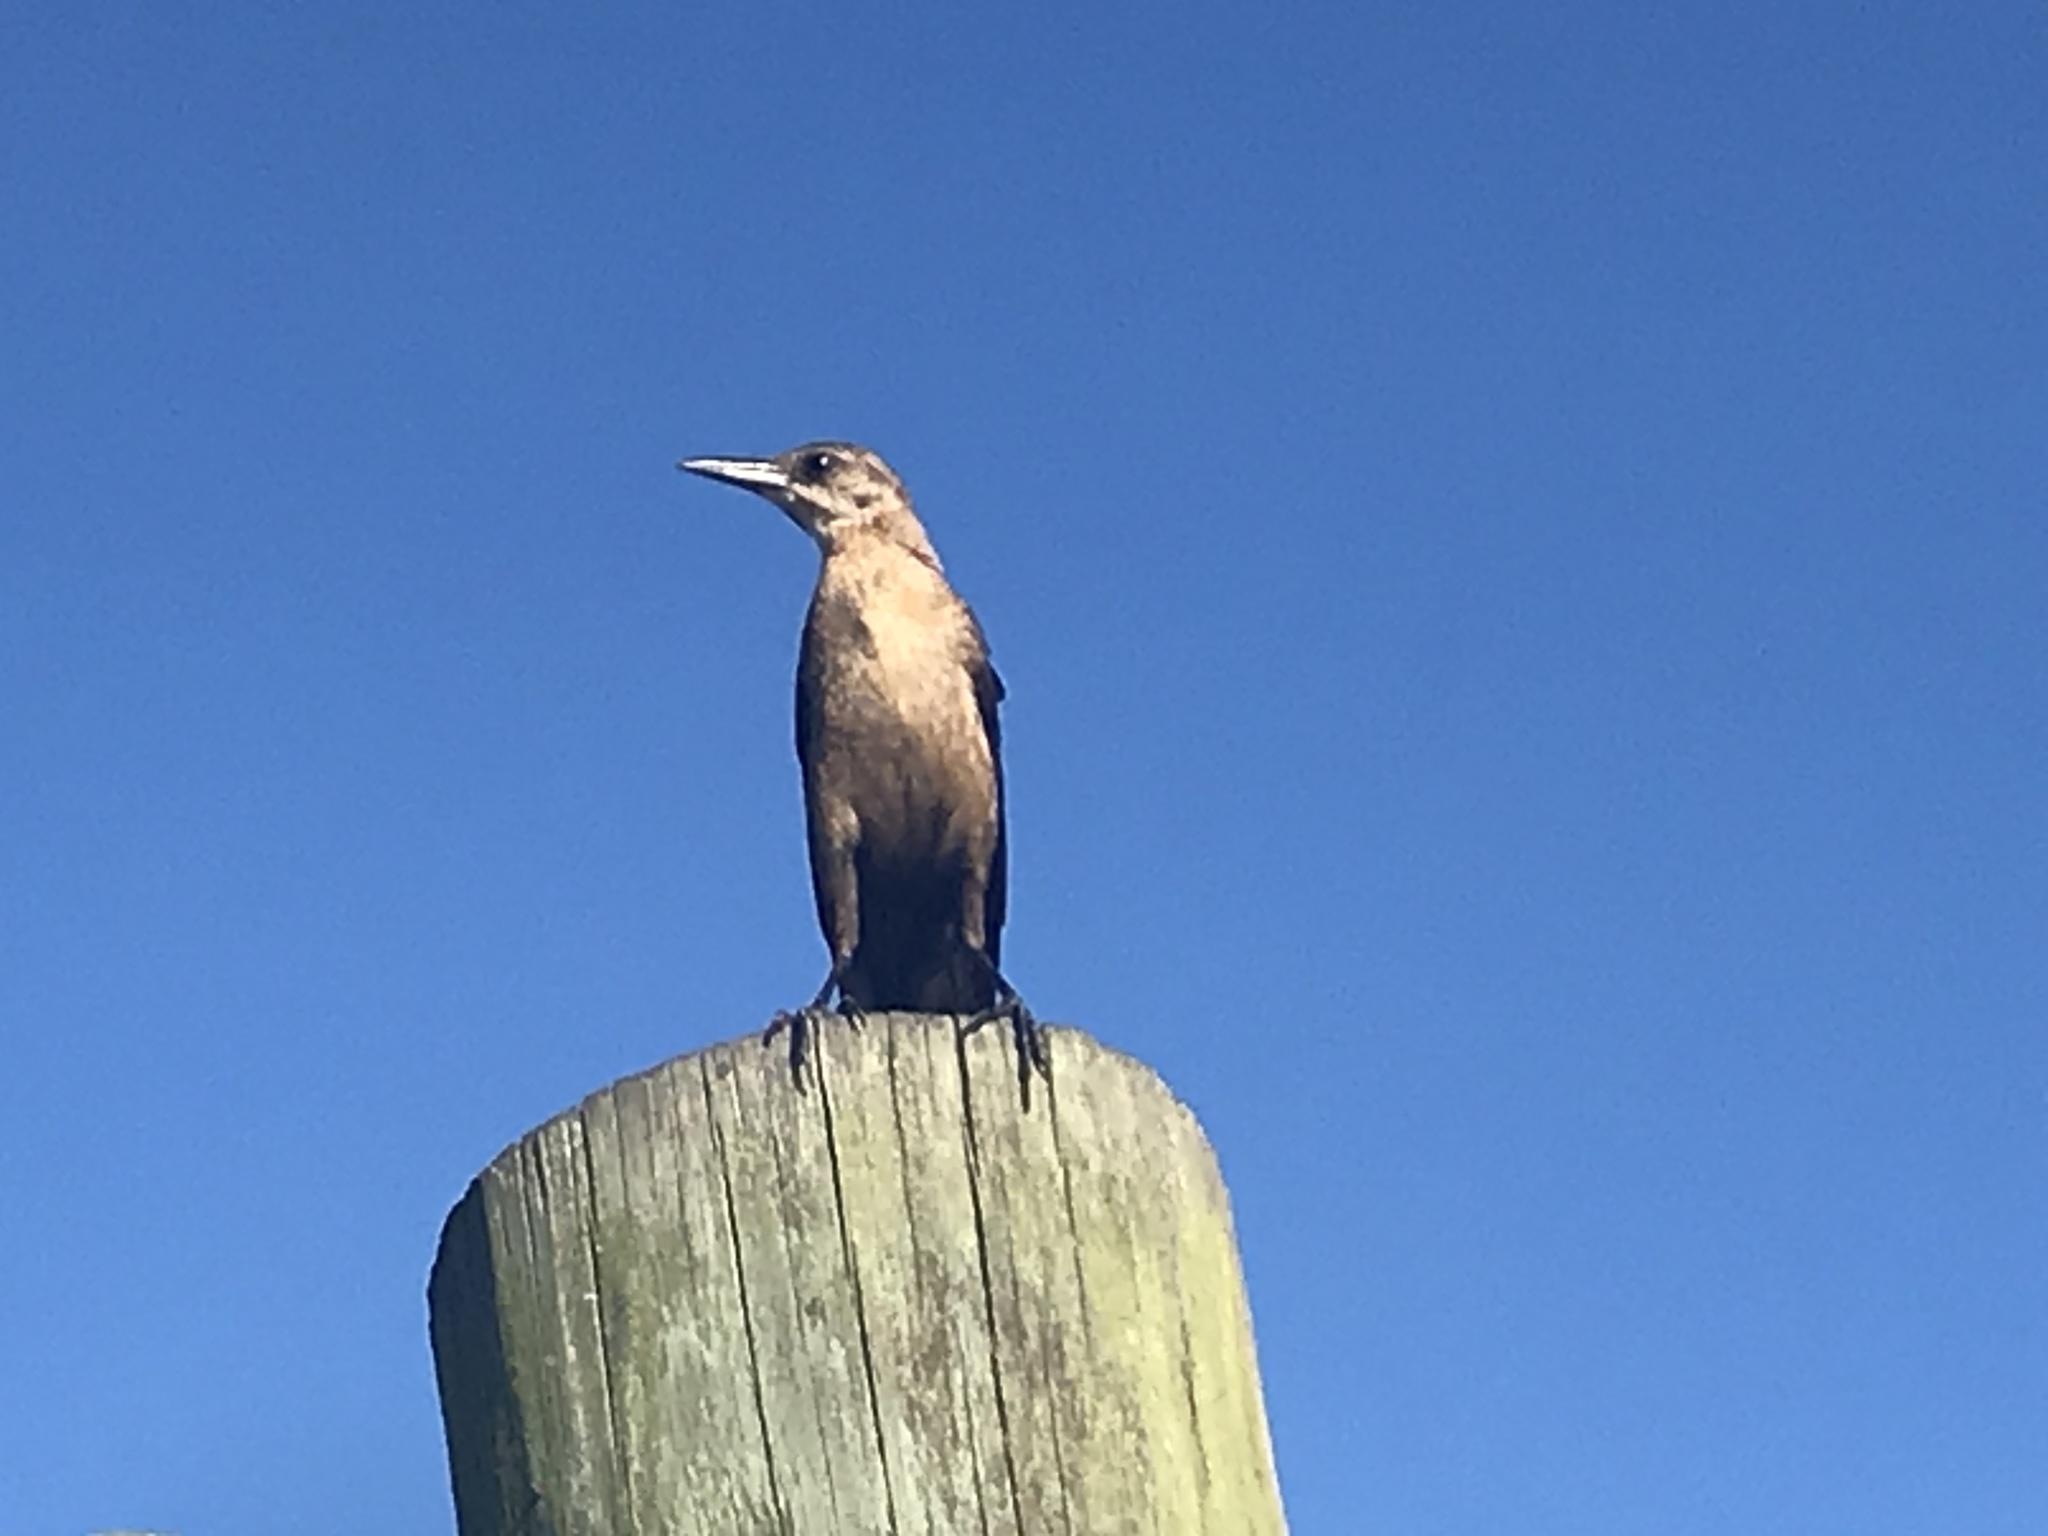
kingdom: Animalia
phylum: Chordata
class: Aves
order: Passeriformes
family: Icteridae
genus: Quiscalus
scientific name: Quiscalus major
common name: Boat-tailed grackle
